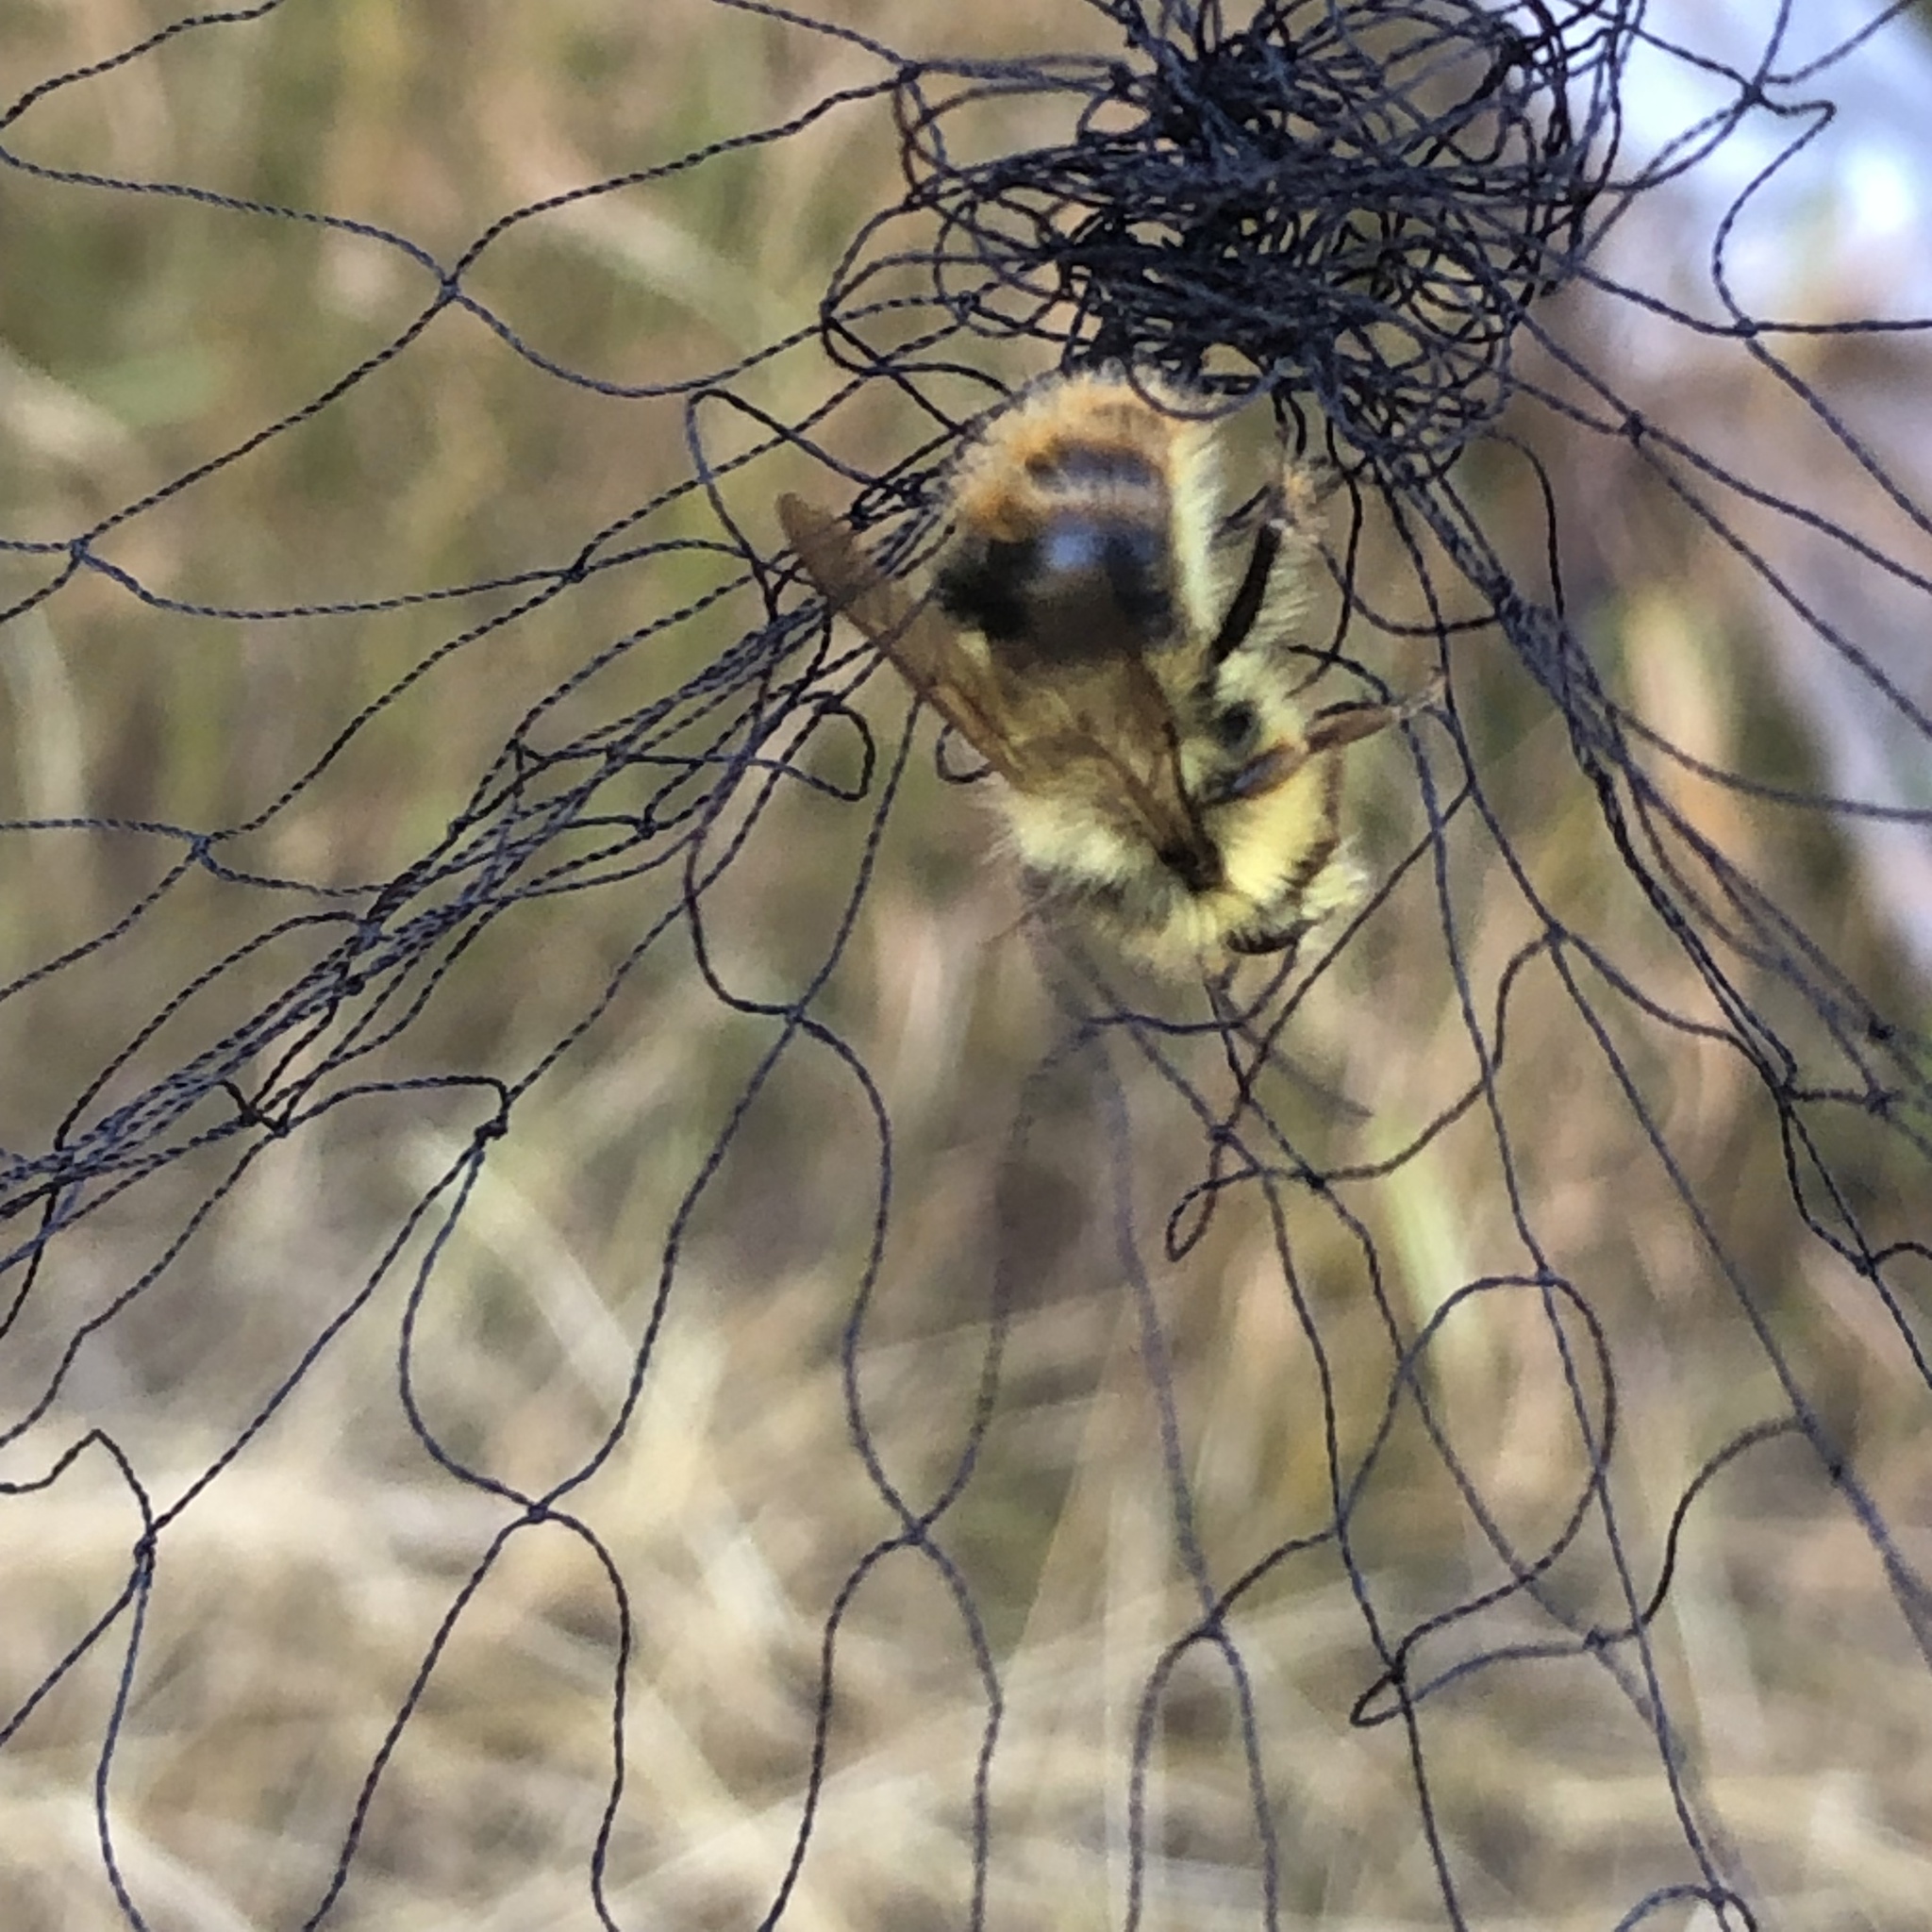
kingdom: Animalia
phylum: Arthropoda
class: Insecta
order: Hymenoptera
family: Apidae
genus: Bombus
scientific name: Bombus mixtus
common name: Fuzzy-horned bumble bee
